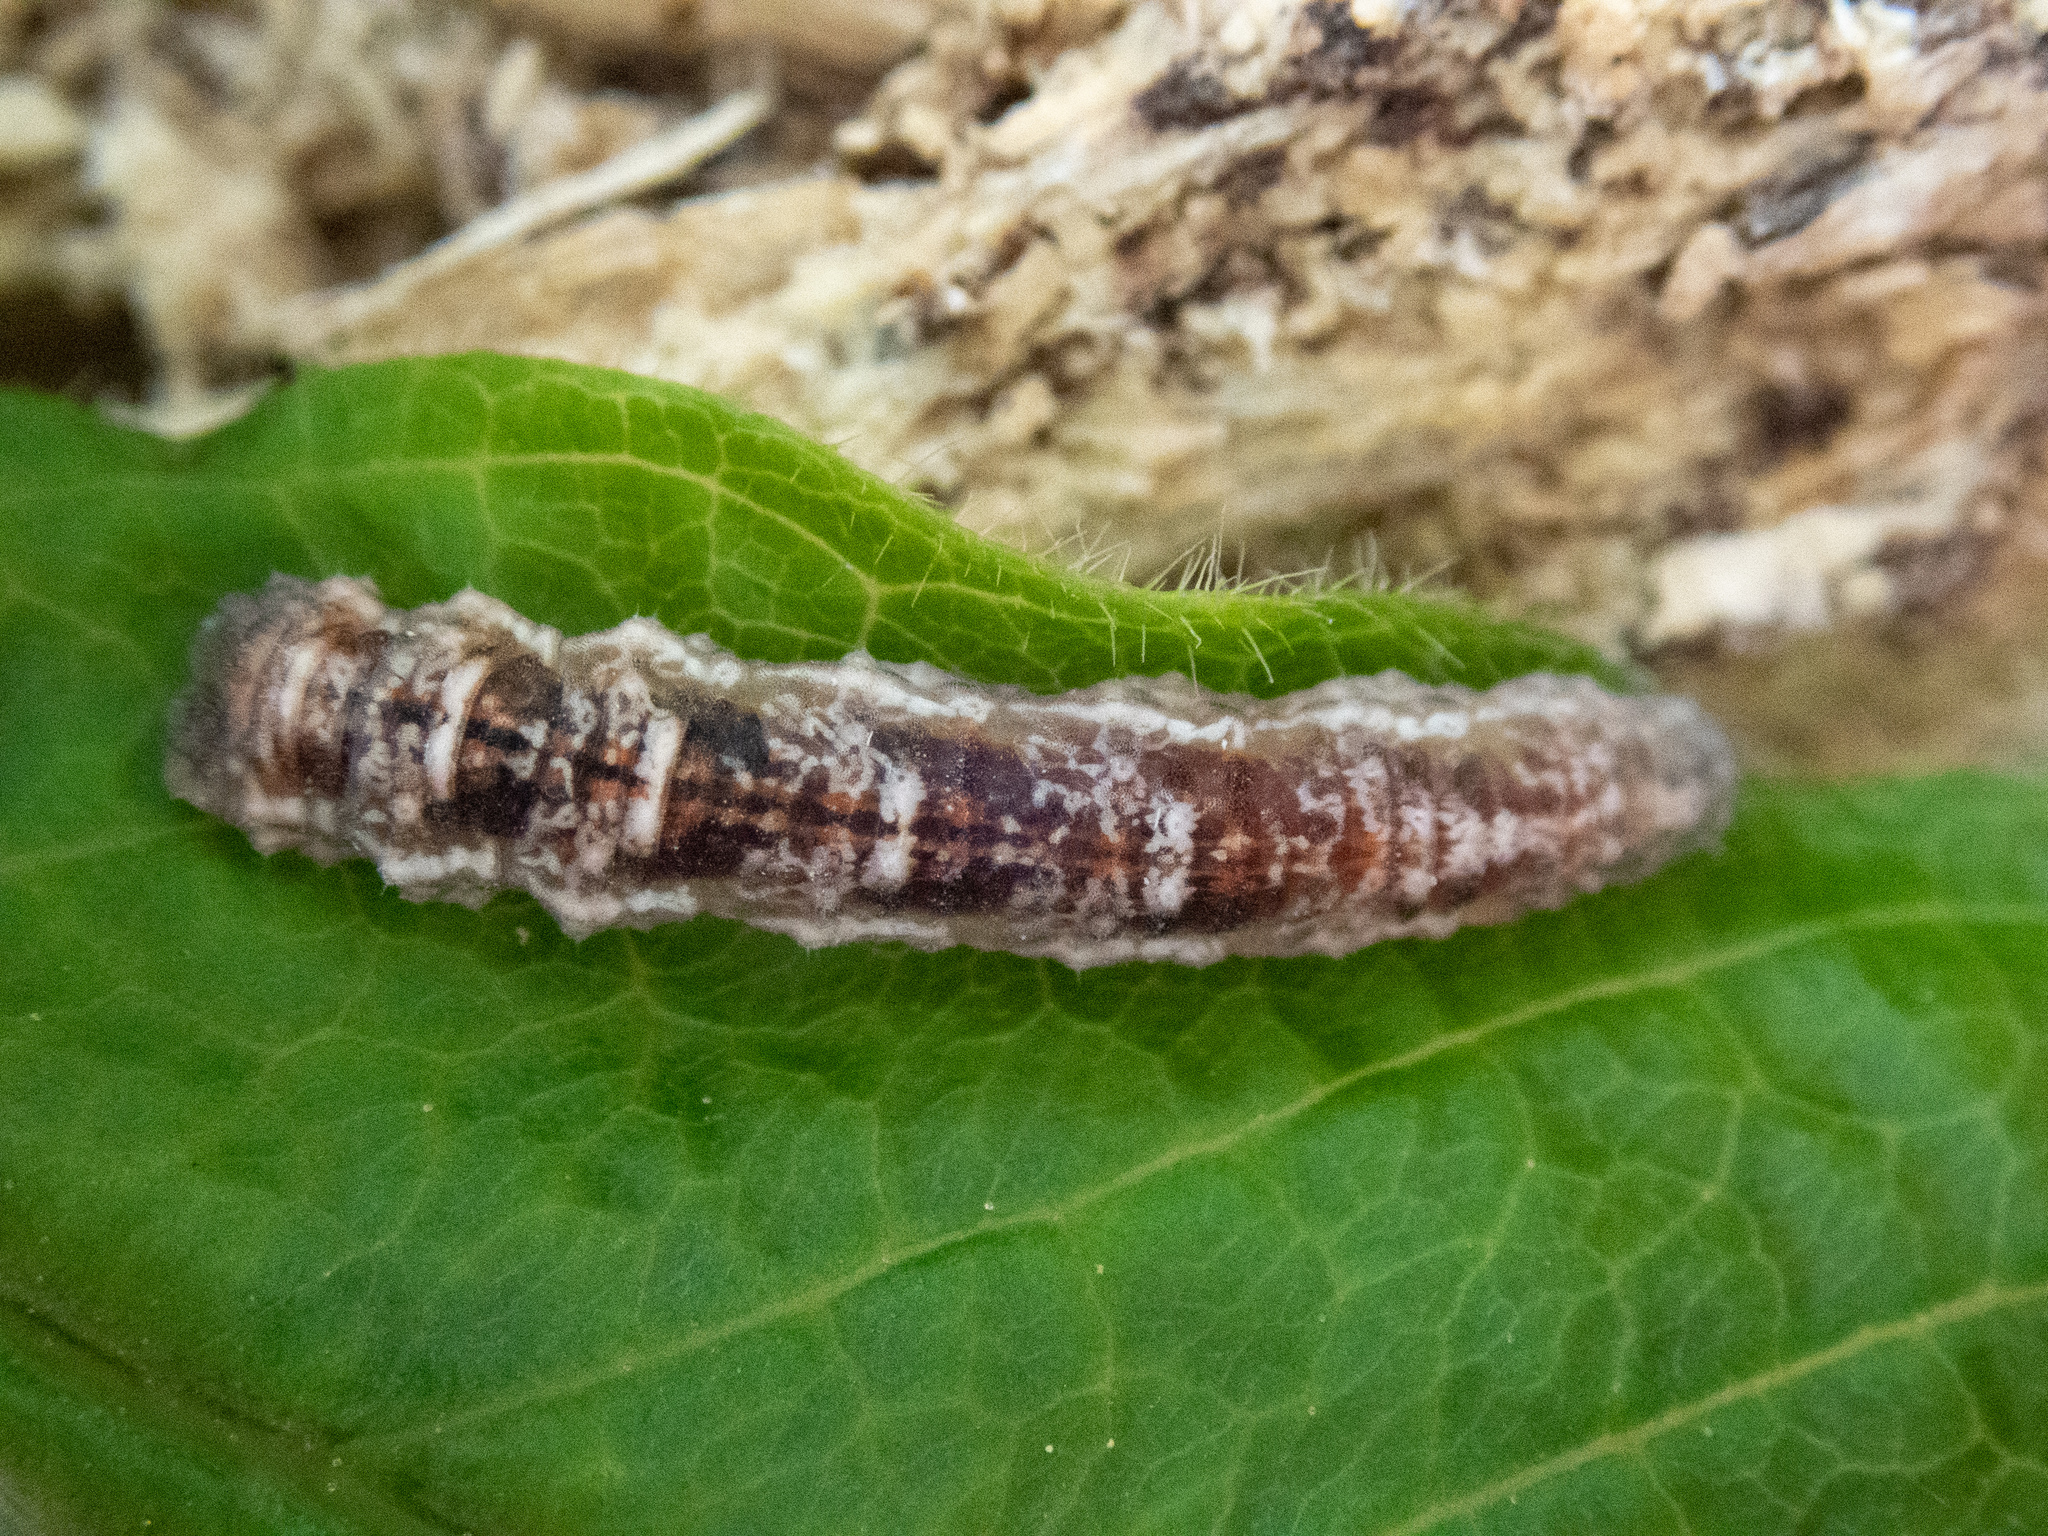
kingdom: Animalia
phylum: Arthropoda
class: Insecta
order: Diptera
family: Syrphidae
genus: Lapposyrphus
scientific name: Lapposyrphus lapponicus
